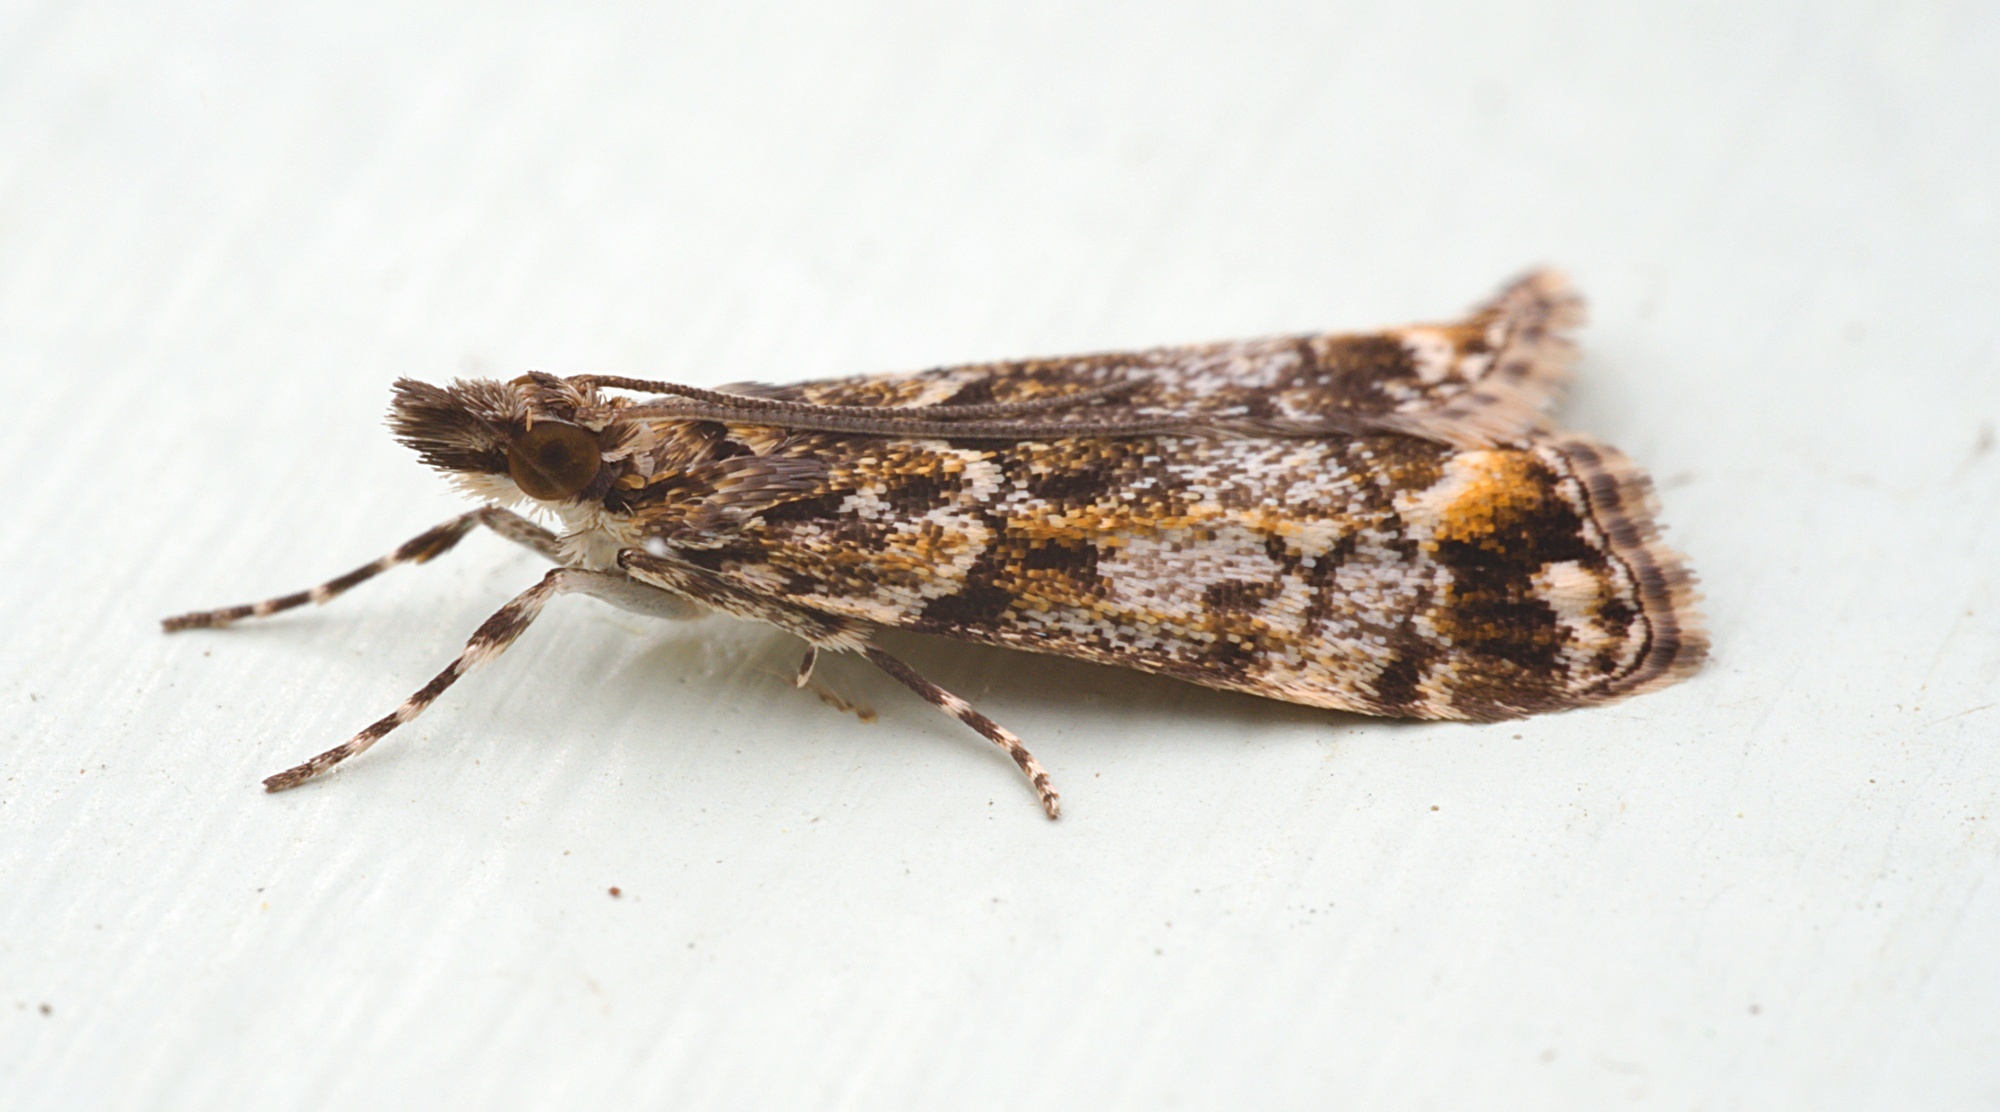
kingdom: Animalia
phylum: Arthropoda
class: Insecta
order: Lepidoptera
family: Crambidae
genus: Eudonia
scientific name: Eudonia minualis
